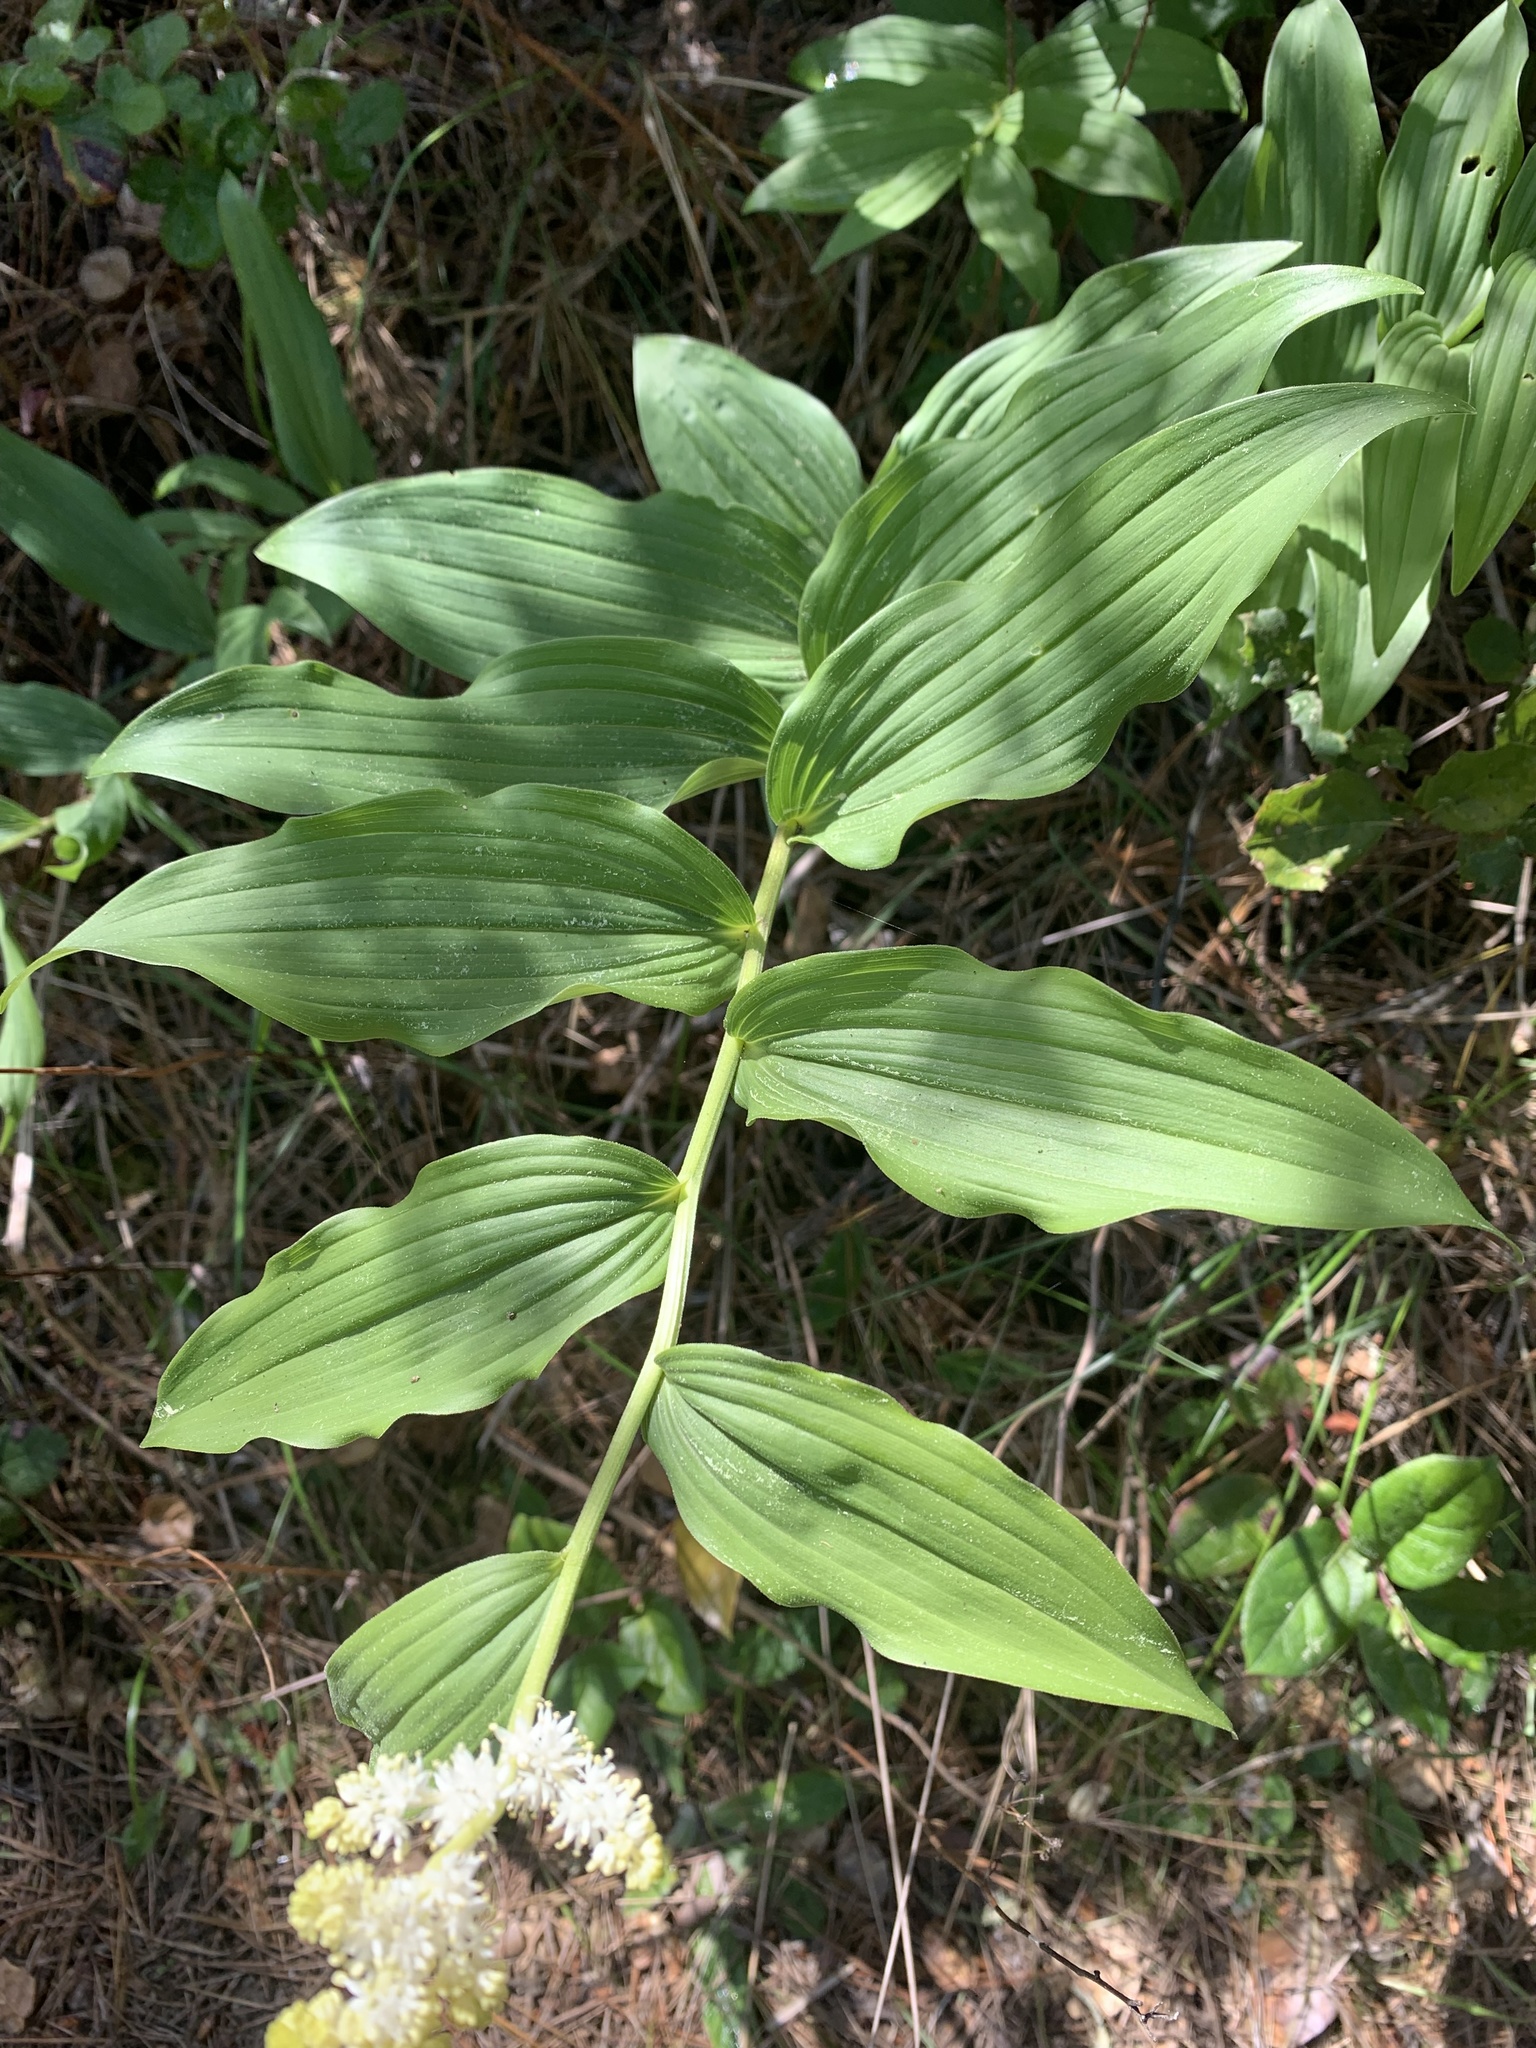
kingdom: Plantae
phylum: Tracheophyta
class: Liliopsida
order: Asparagales
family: Asparagaceae
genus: Maianthemum
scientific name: Maianthemum racemosum
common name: False spikenard
